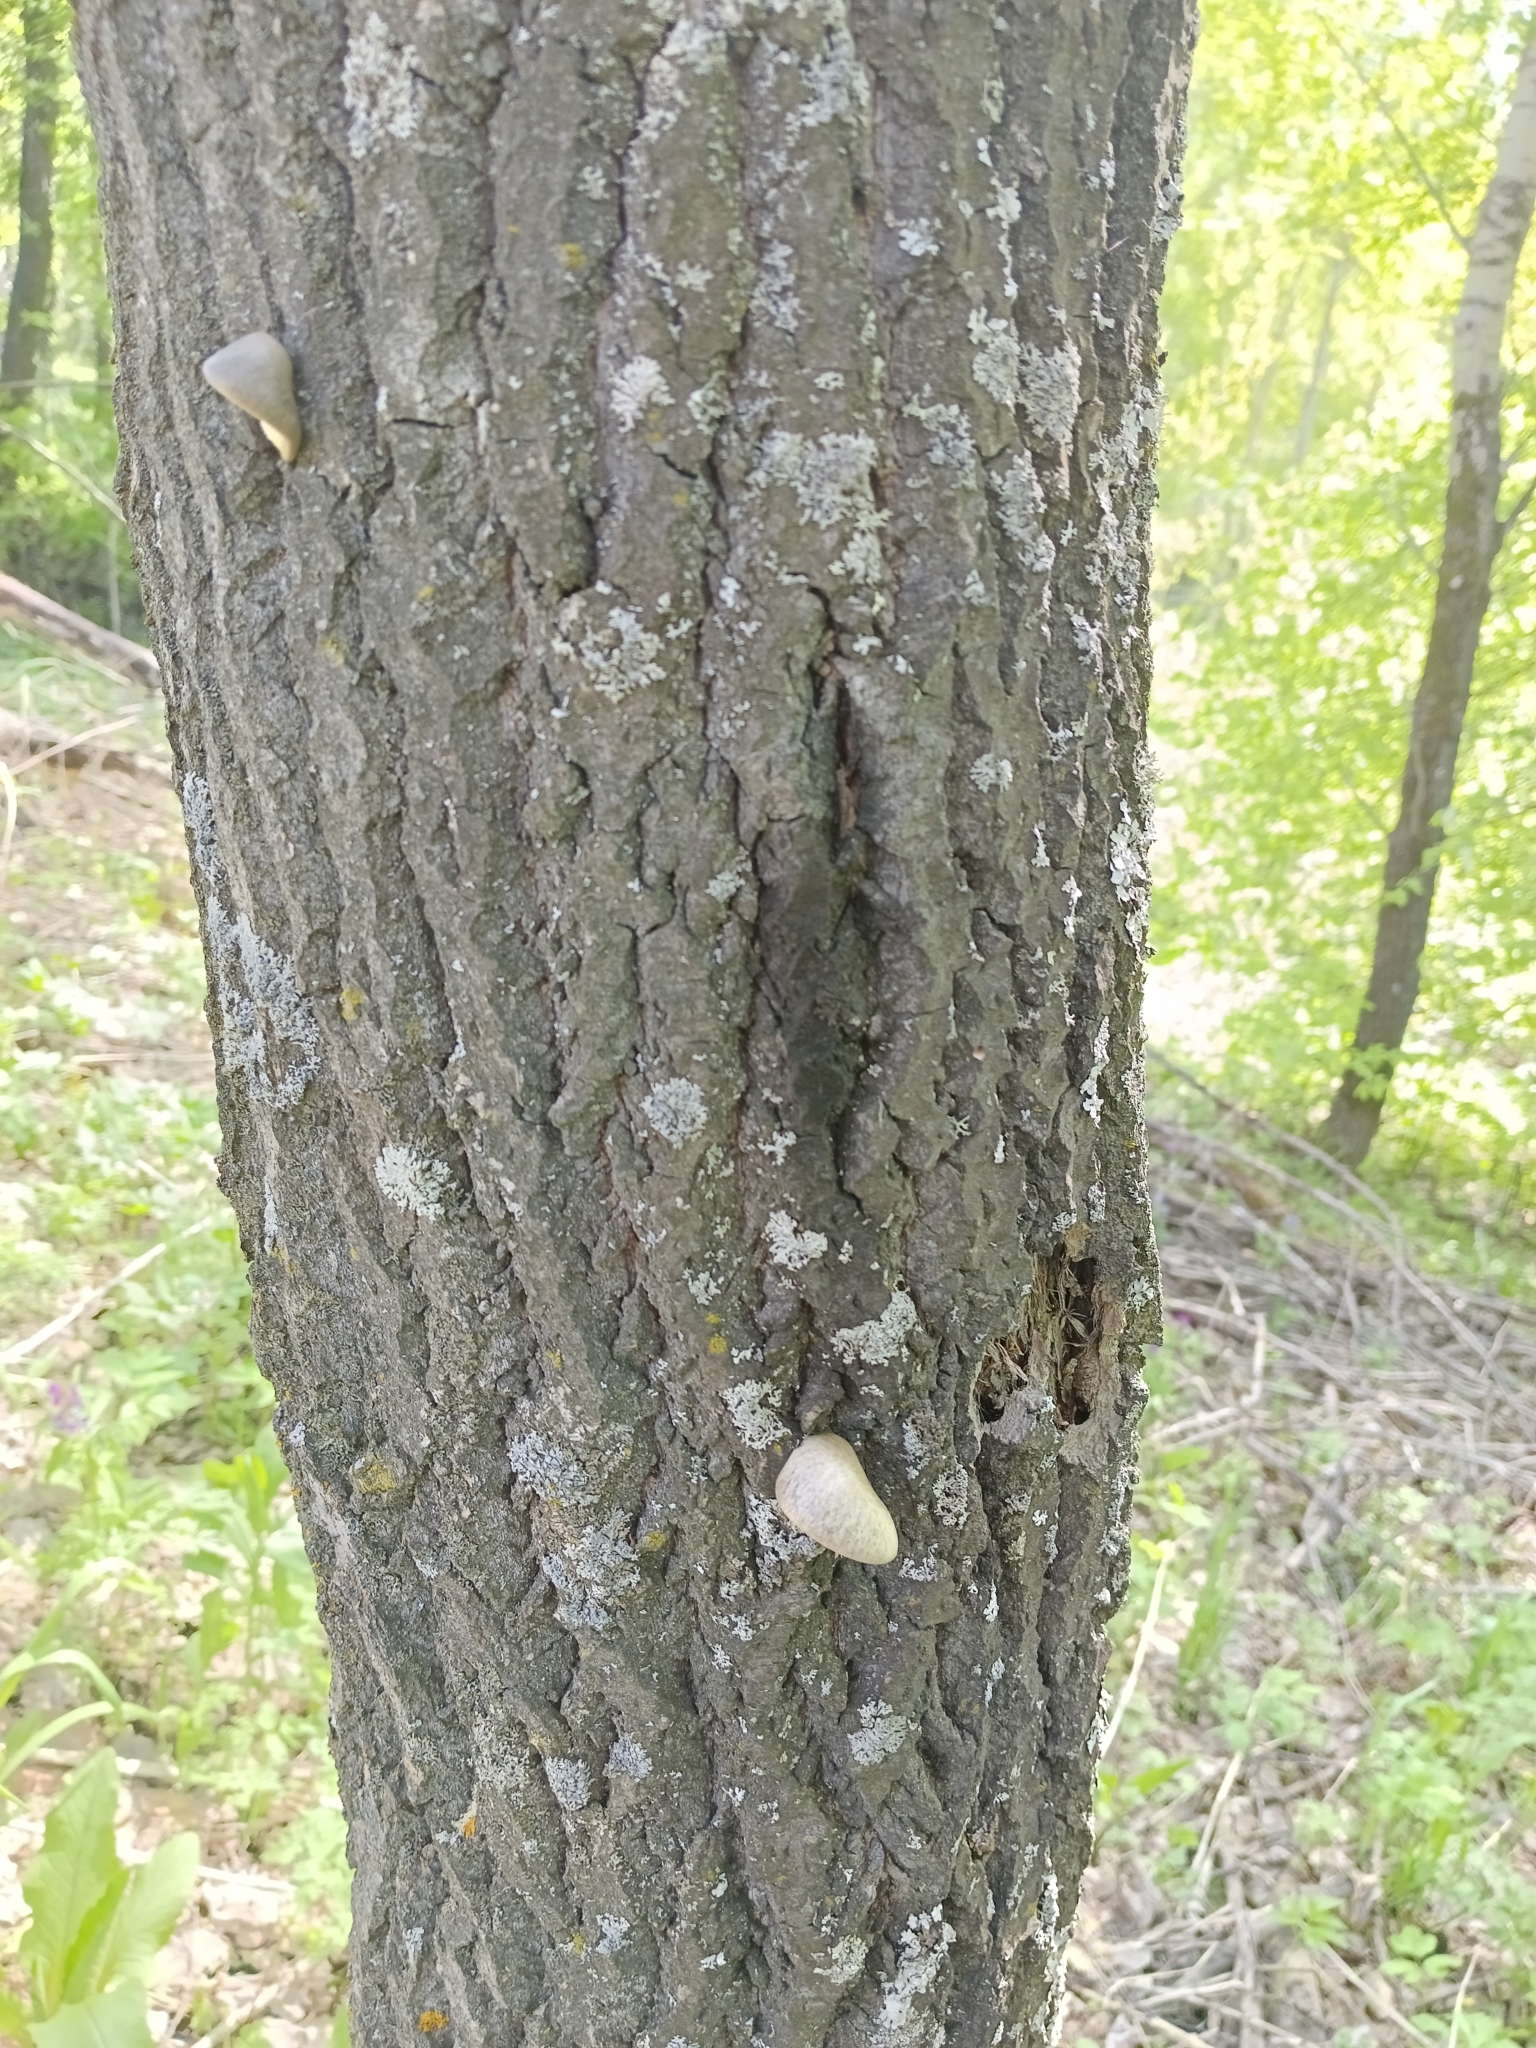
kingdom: Fungi
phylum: Basidiomycota
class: Agaricomycetes
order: Agaricales
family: Pleurotaceae
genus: Pleurotus
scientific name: Pleurotus calyptratus
